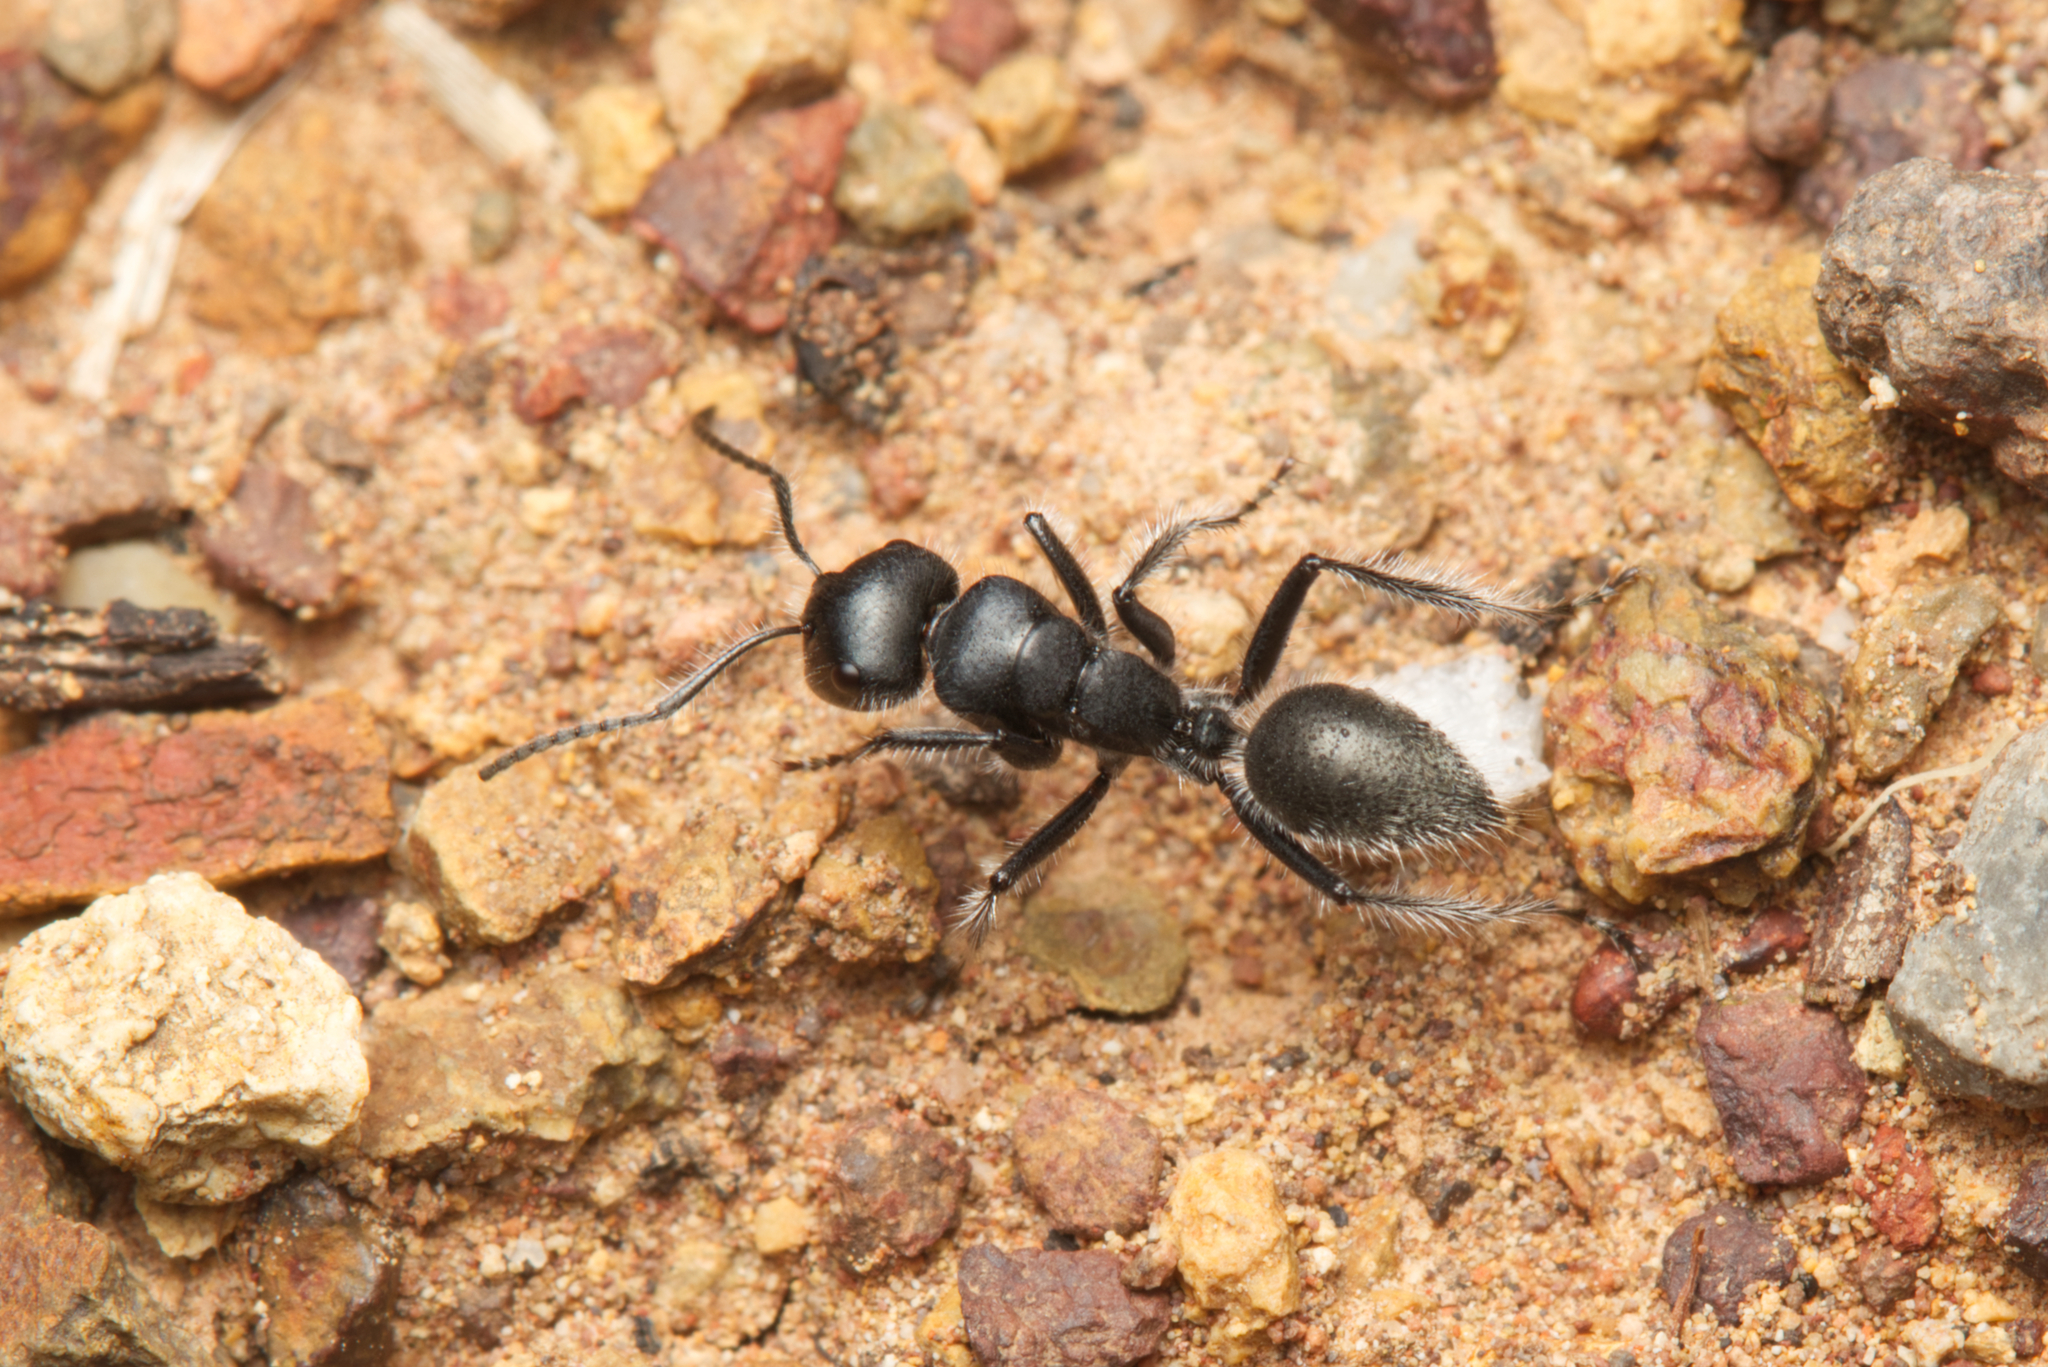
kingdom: Animalia
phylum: Arthropoda
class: Insecta
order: Hymenoptera
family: Formicidae
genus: Calomyrmex
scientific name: Calomyrmex albopilosus
